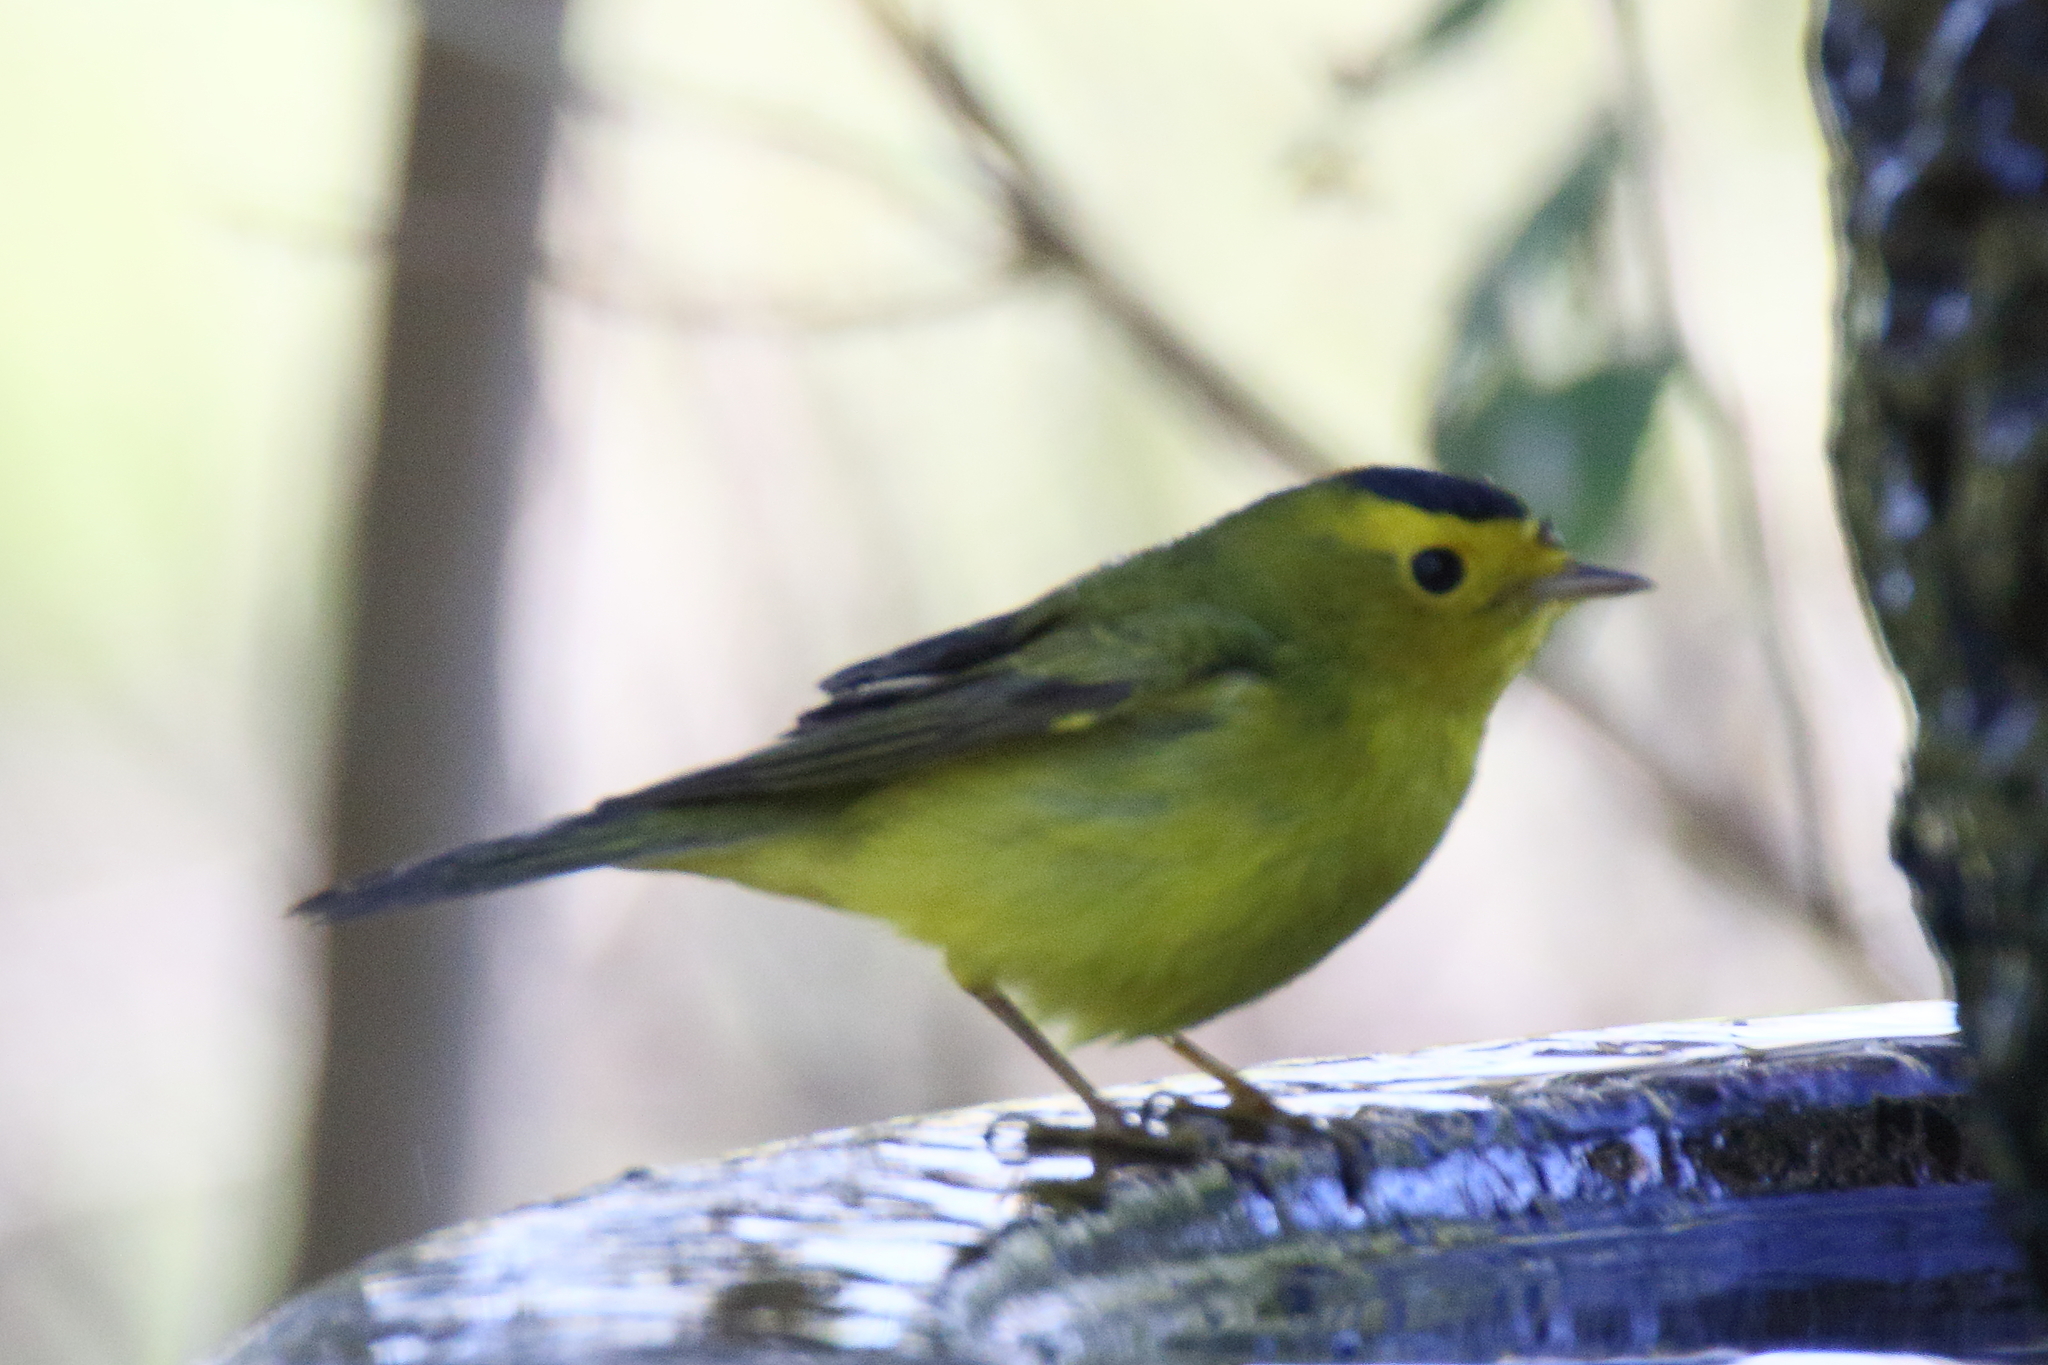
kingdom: Animalia
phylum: Chordata
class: Aves
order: Passeriformes
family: Parulidae
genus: Cardellina
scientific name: Cardellina pusilla
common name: Wilson's warbler
